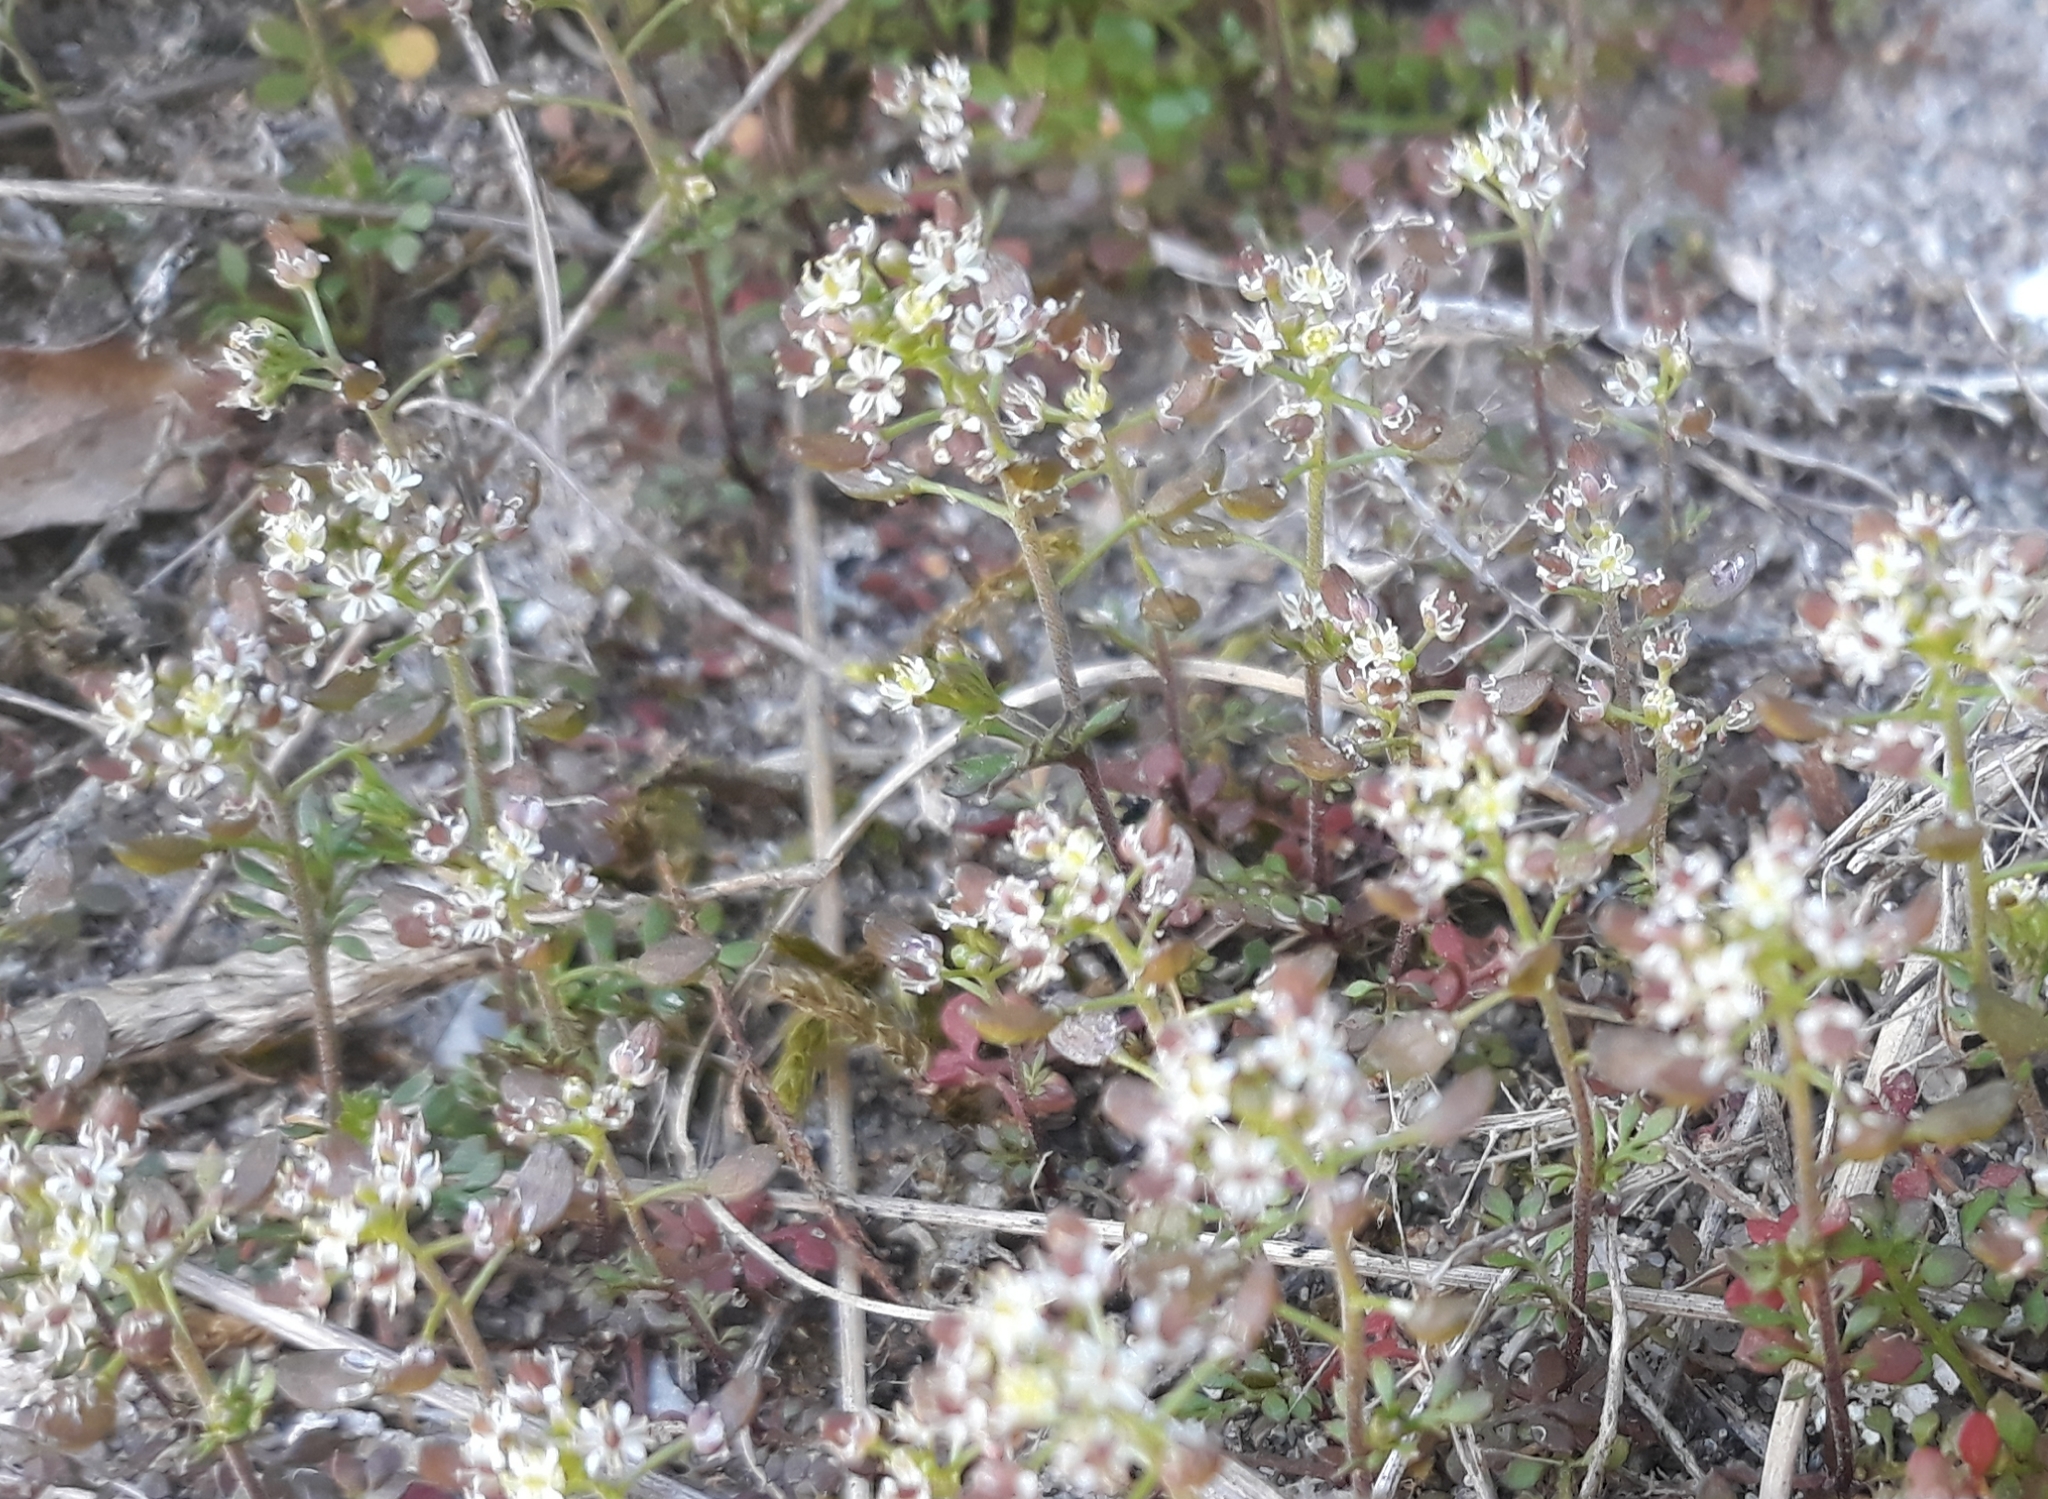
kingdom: Plantae
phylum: Tracheophyta
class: Magnoliopsida
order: Brassicales
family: Brassicaceae
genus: Hornungia
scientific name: Hornungia petraea
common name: Hutchinsia
